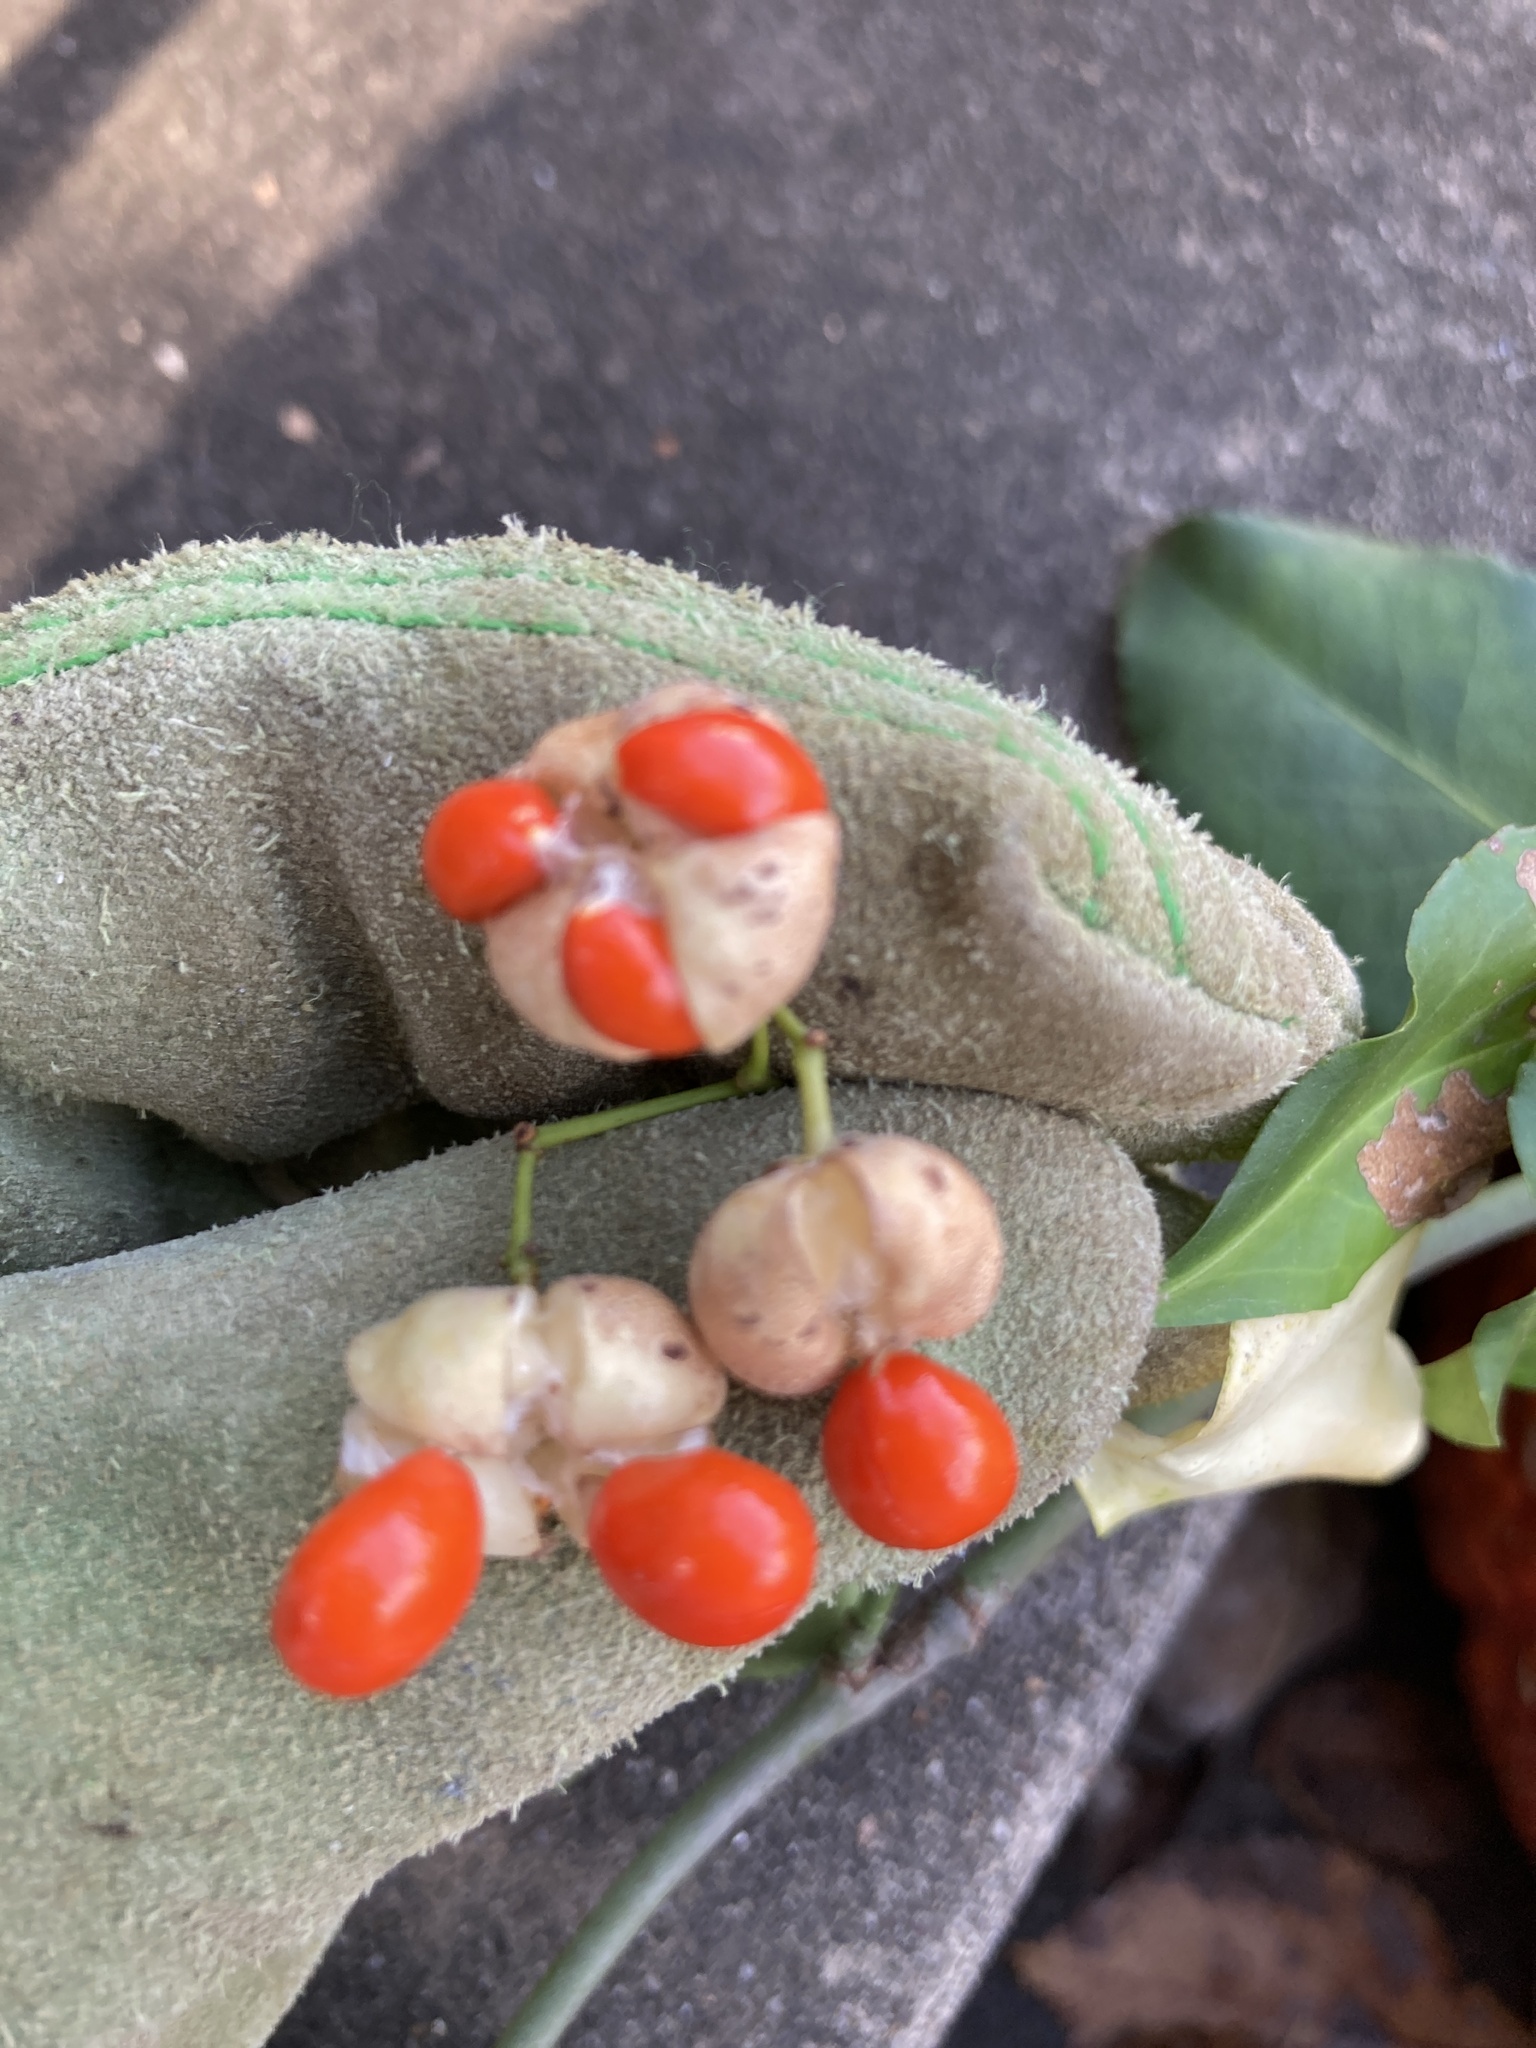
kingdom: Plantae
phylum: Tracheophyta
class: Magnoliopsida
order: Celastrales
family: Celastraceae
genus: Euonymus
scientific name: Euonymus fortunei
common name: Climbing euonymus
